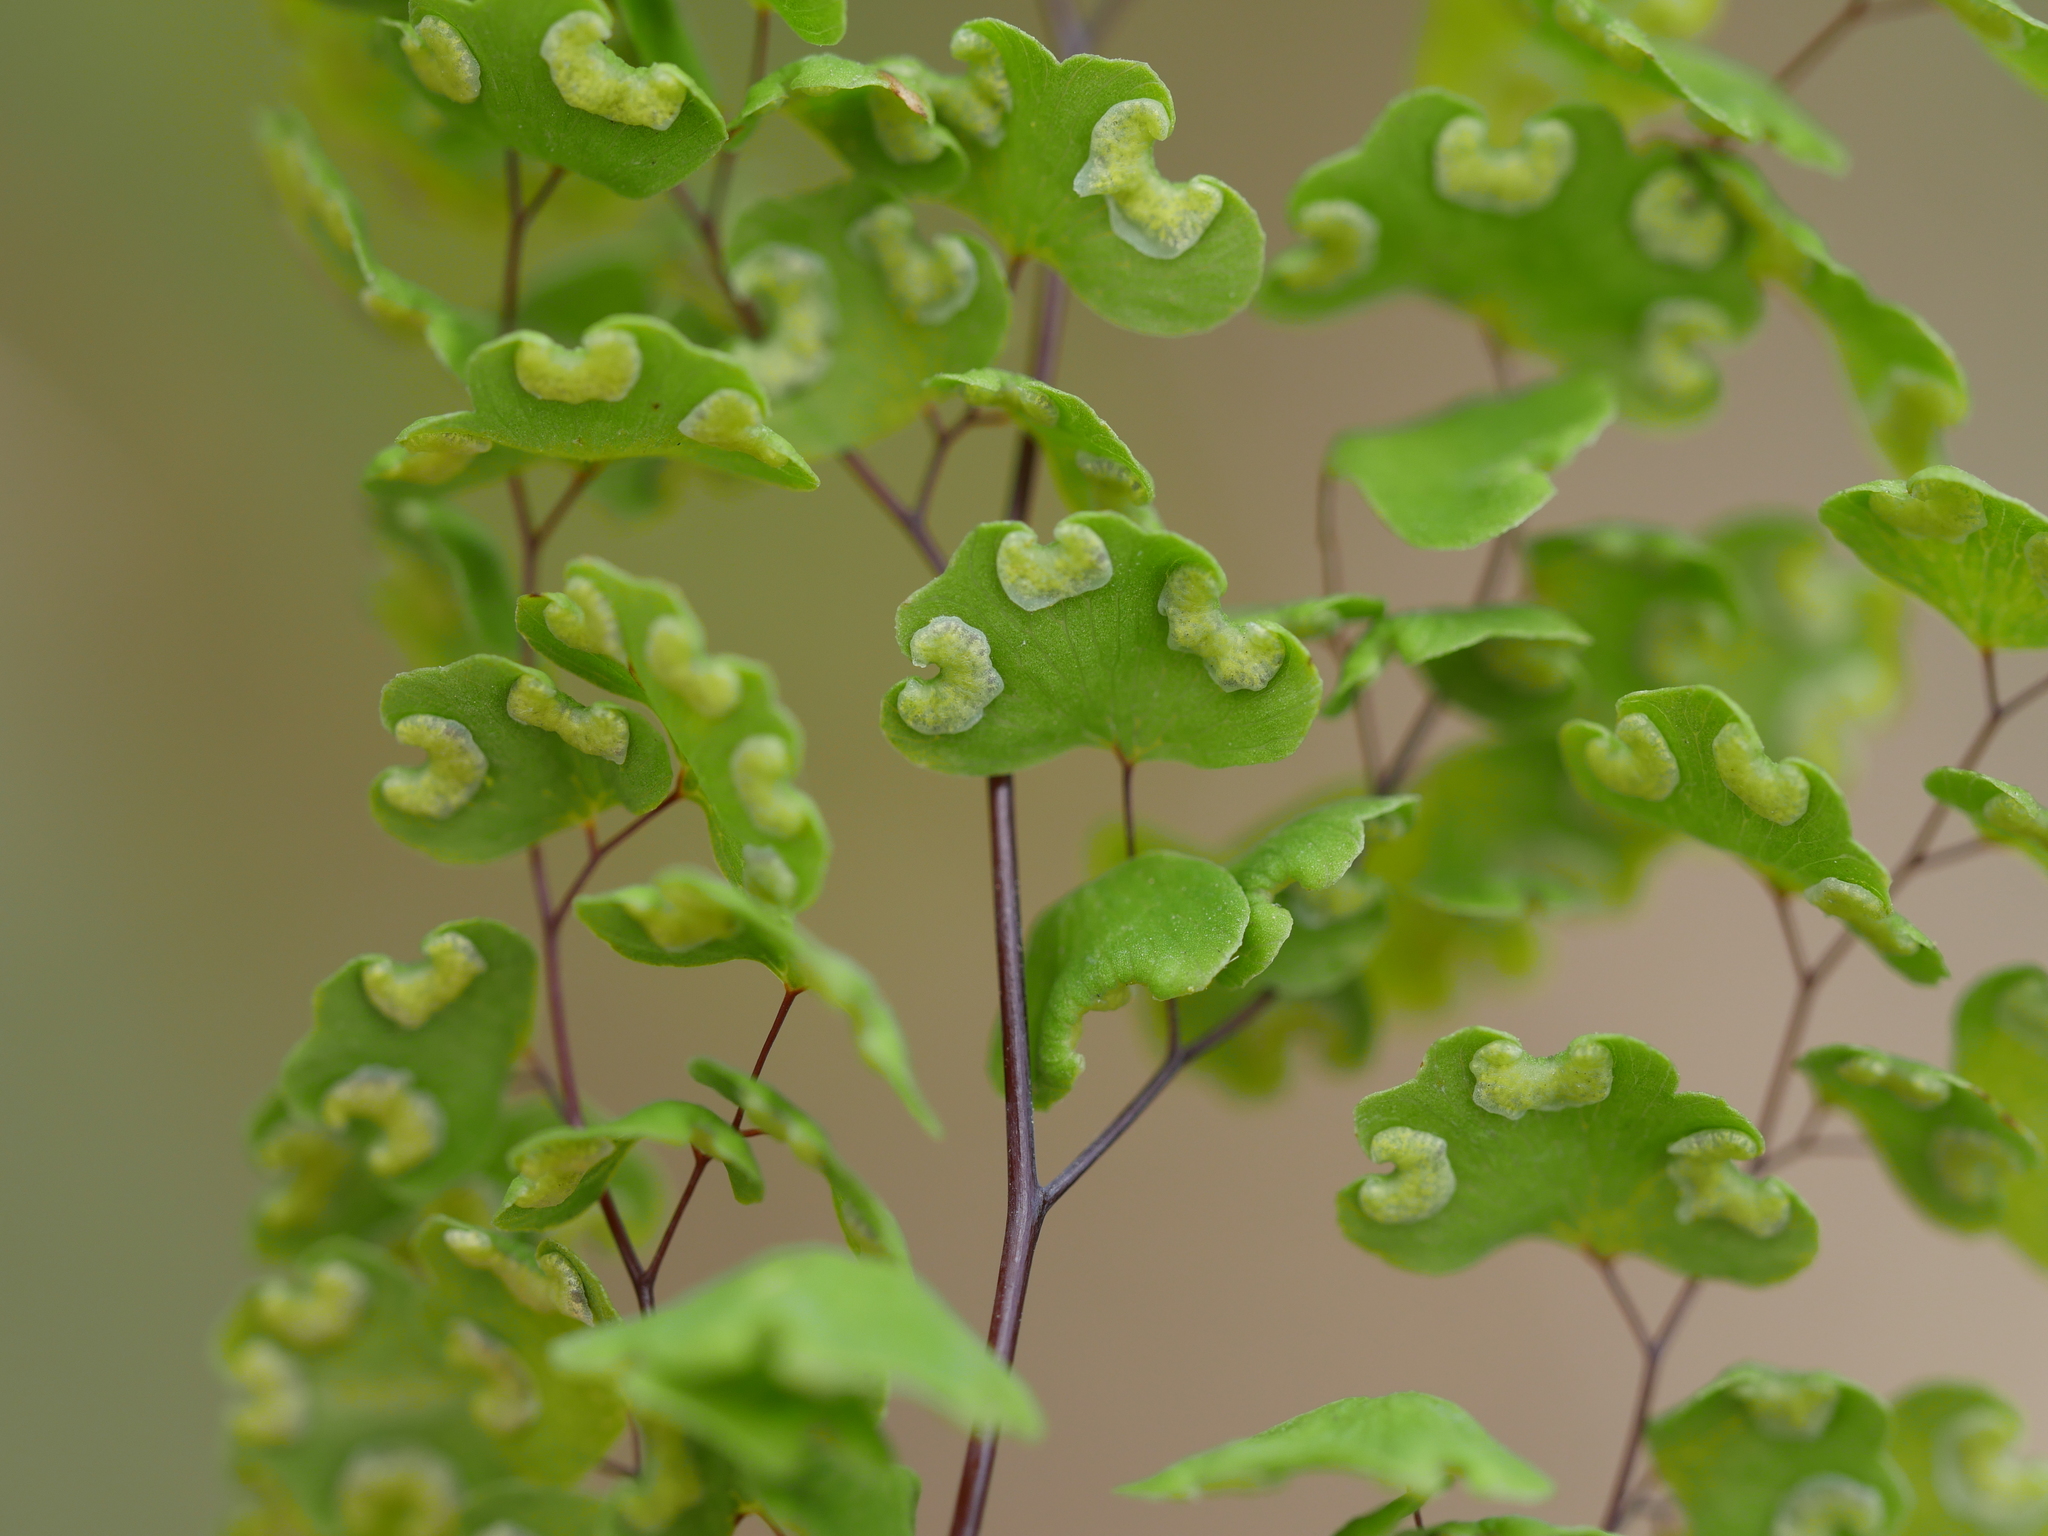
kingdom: Plantae
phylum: Tracheophyta
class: Polypodiopsida
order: Polypodiales
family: Pteridaceae
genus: Adiantum
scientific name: Adiantum aethiopicum
